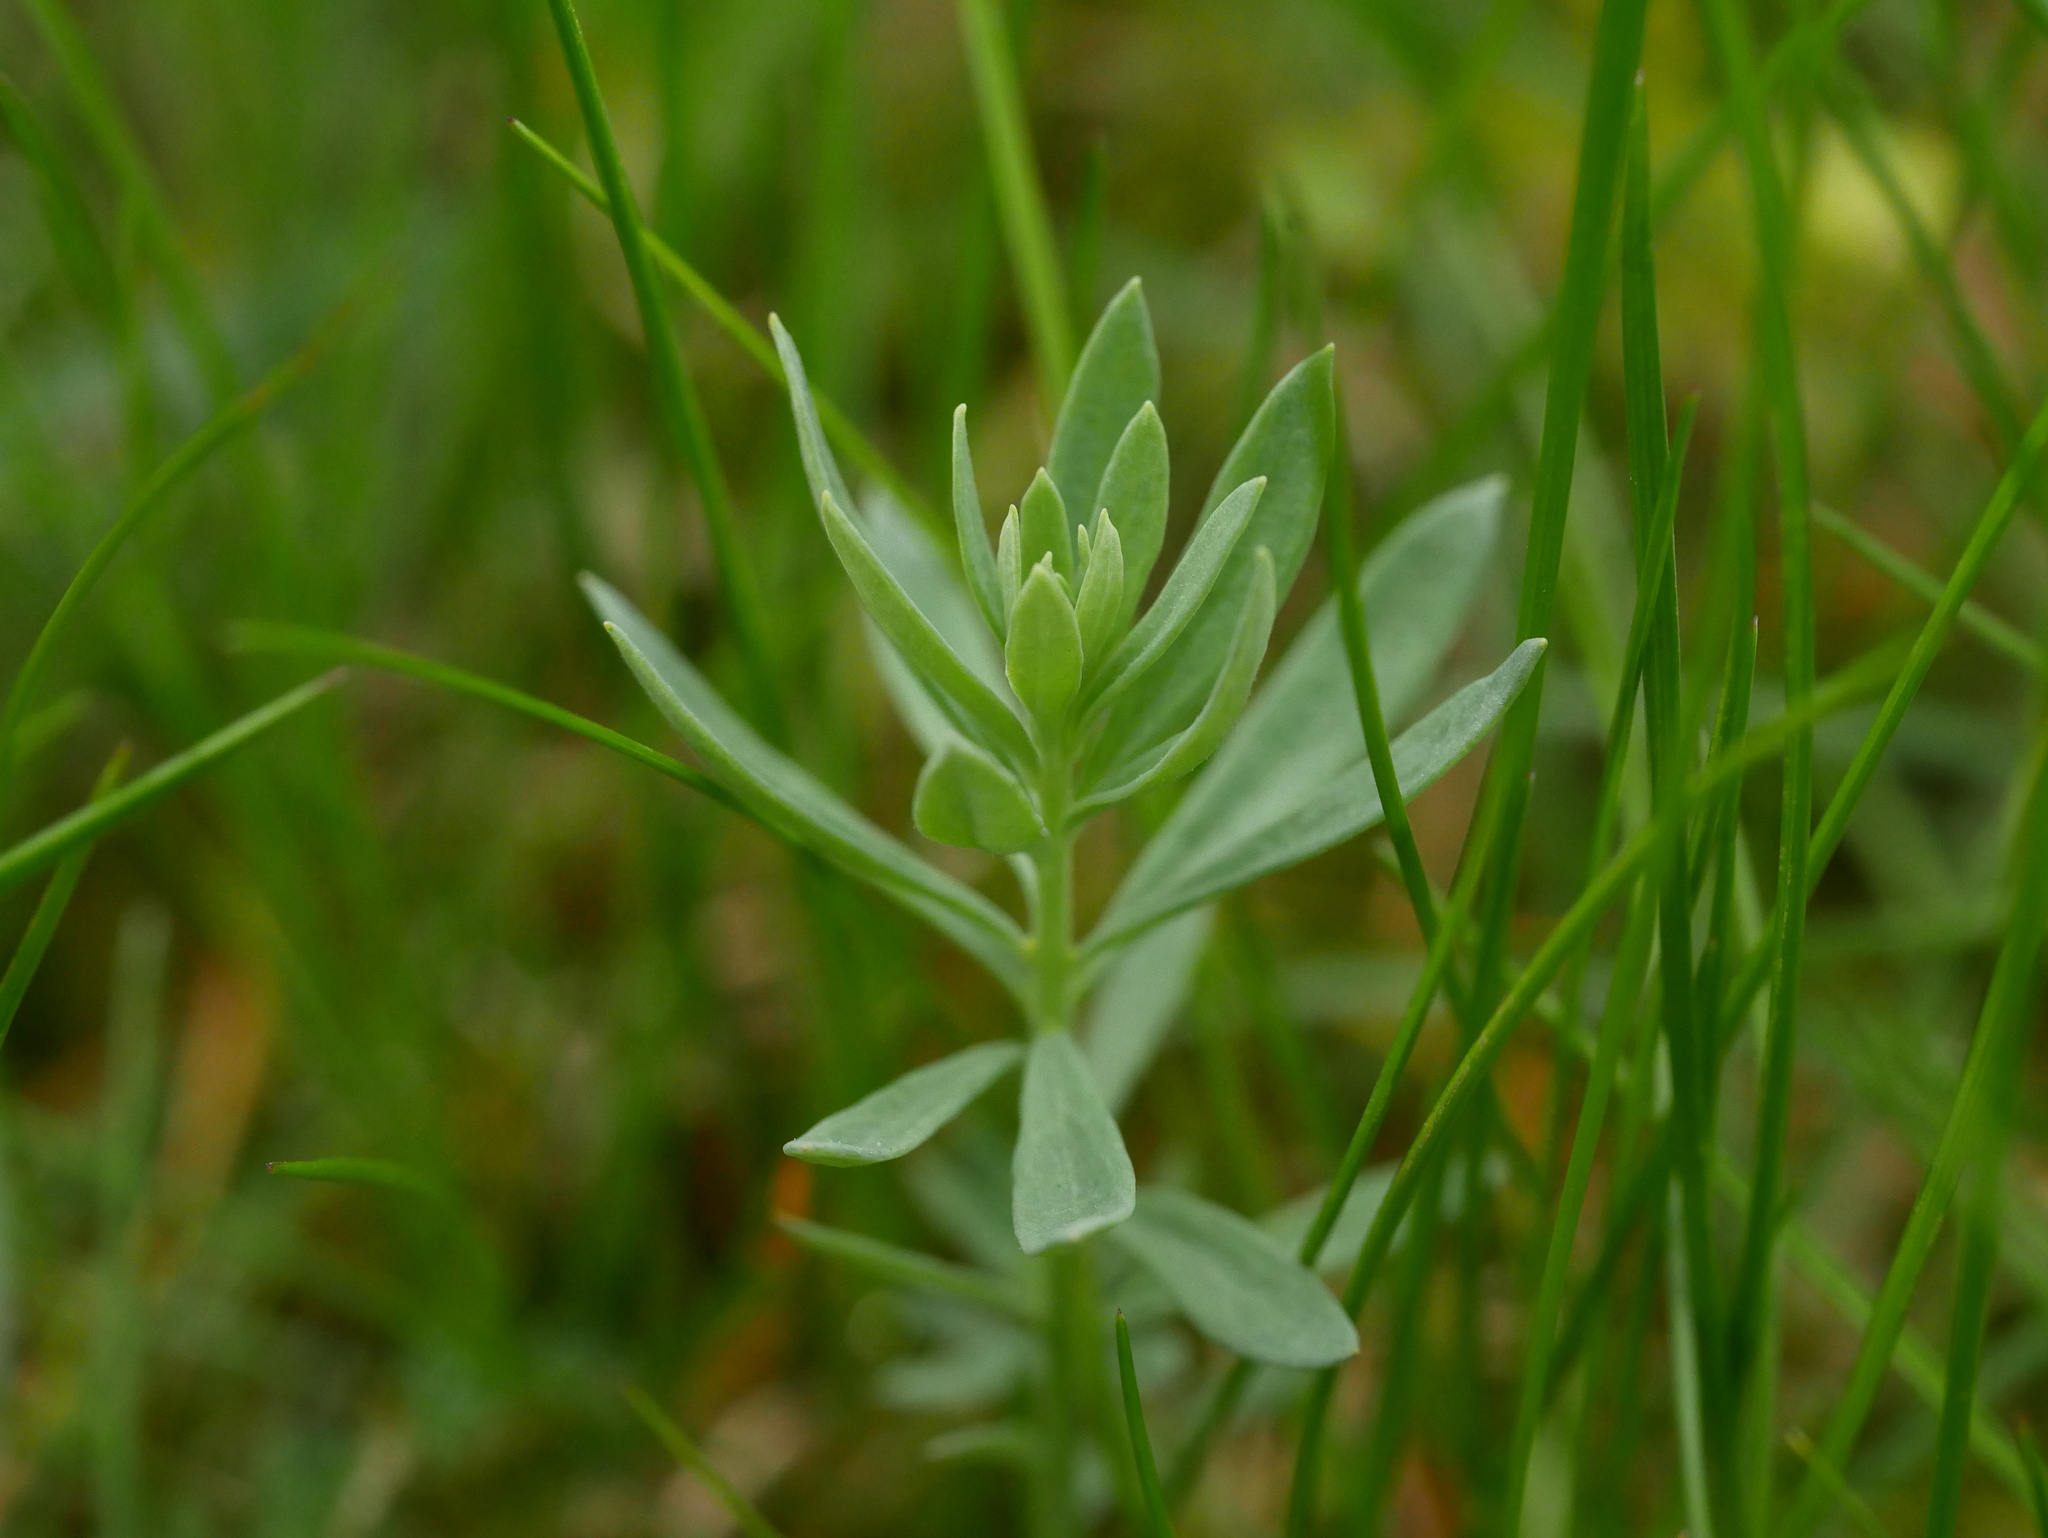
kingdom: Plantae
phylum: Tracheophyta
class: Magnoliopsida
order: Brassicales
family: Brassicaceae
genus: Berteroa
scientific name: Berteroa incana
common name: Hoary alison
